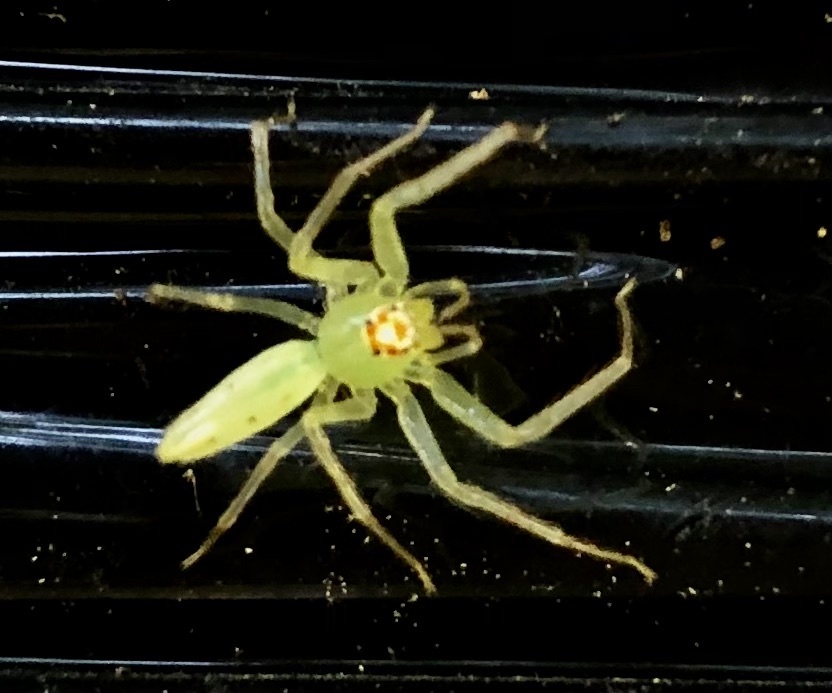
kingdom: Animalia
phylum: Arthropoda
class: Arachnida
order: Araneae
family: Salticidae
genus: Lyssomanes
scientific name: Lyssomanes viridis
